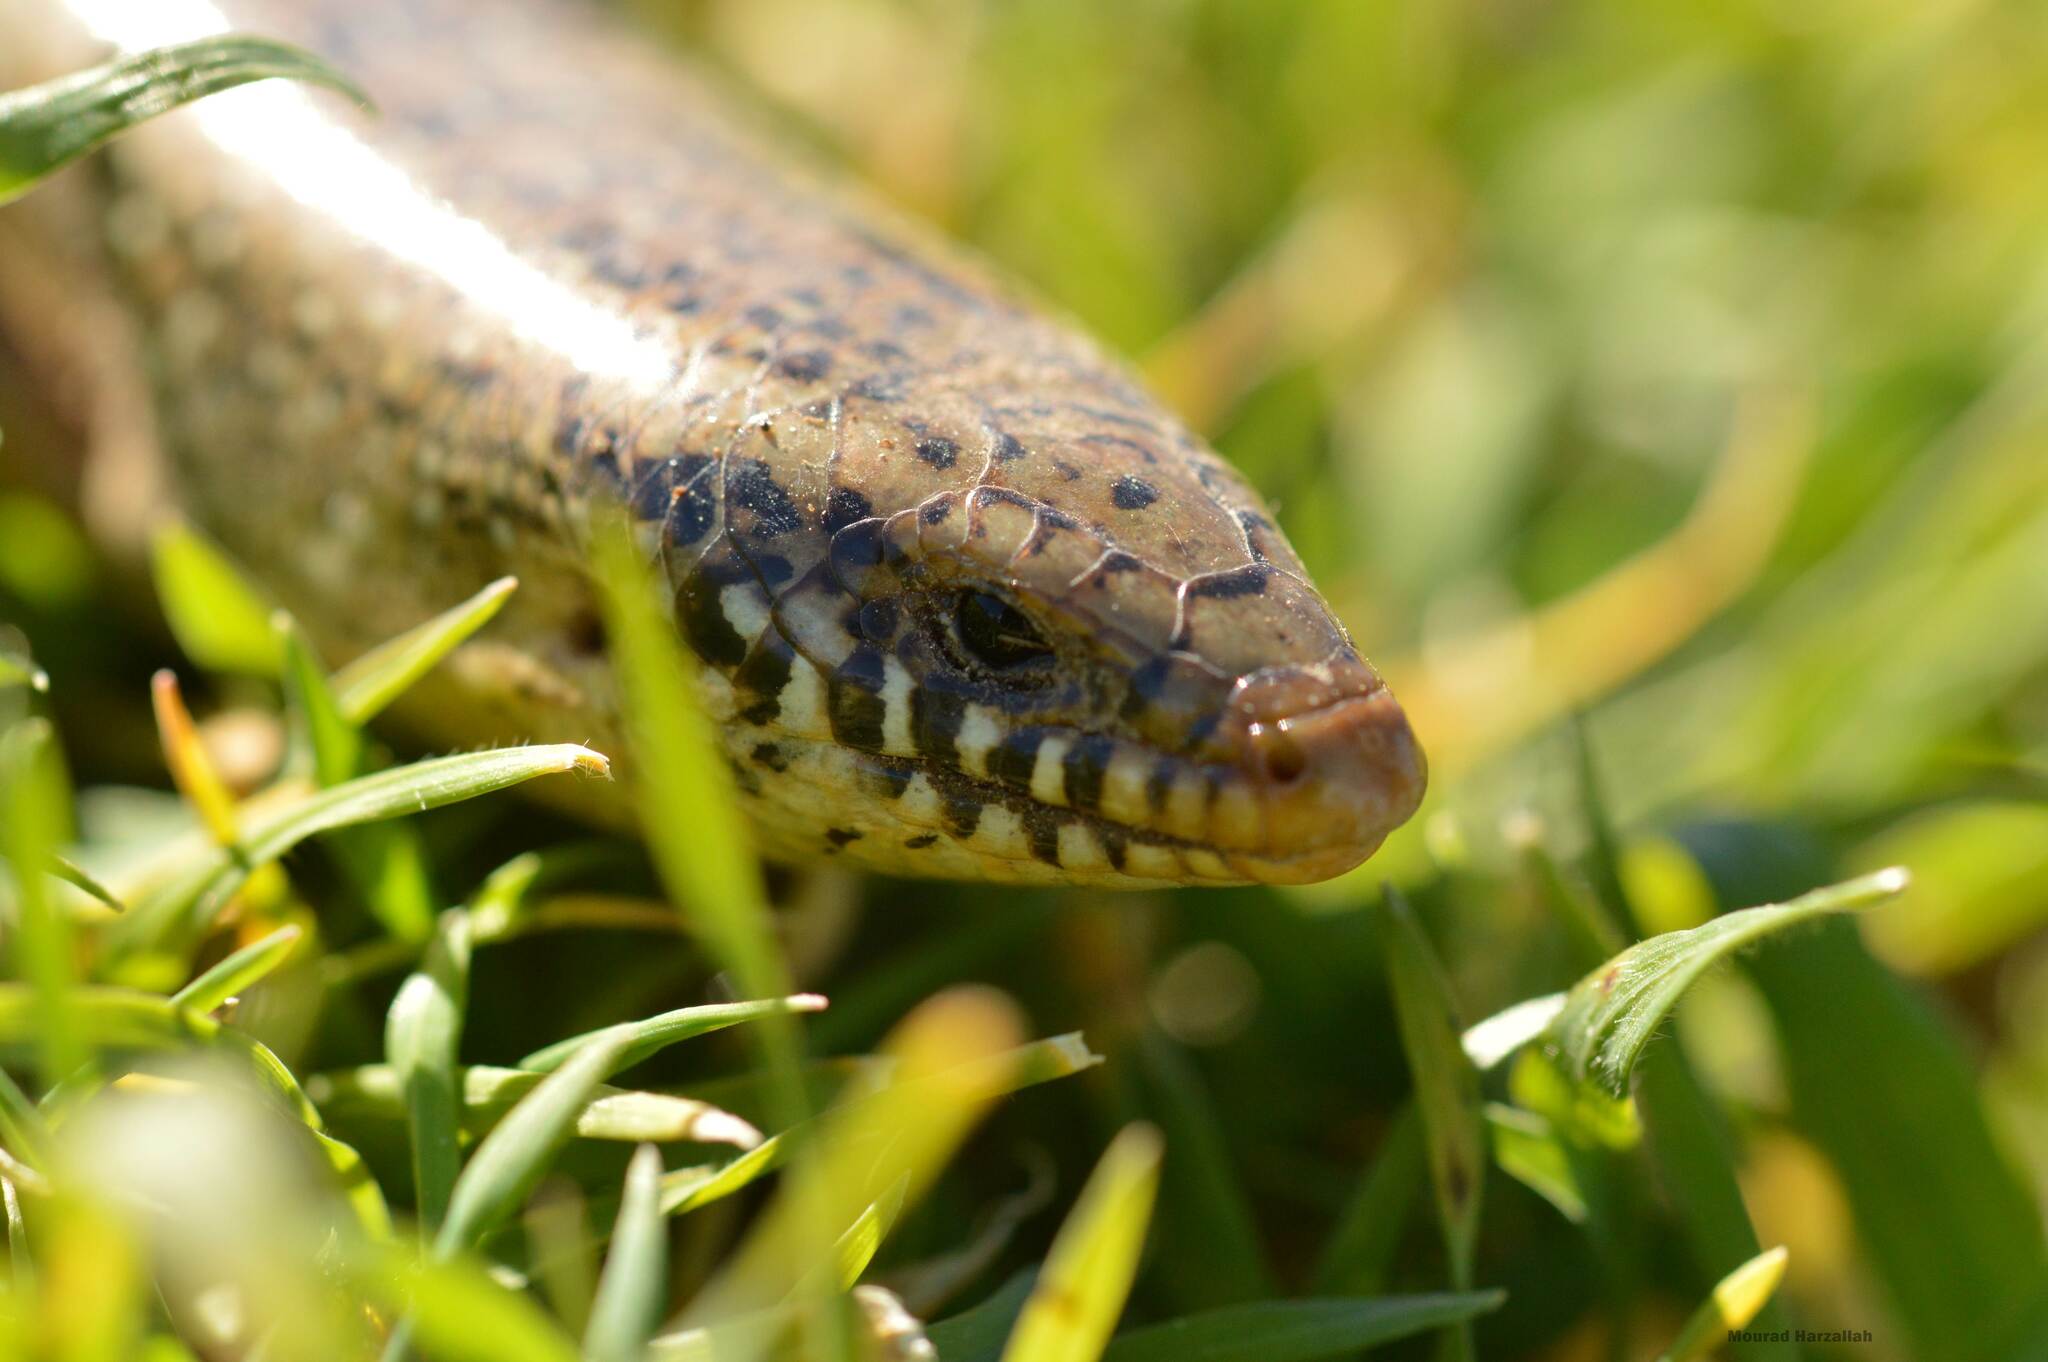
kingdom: Animalia
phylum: Chordata
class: Squamata
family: Scincidae
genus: Chalcides
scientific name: Chalcides ocellatus
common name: Ocellated skink
